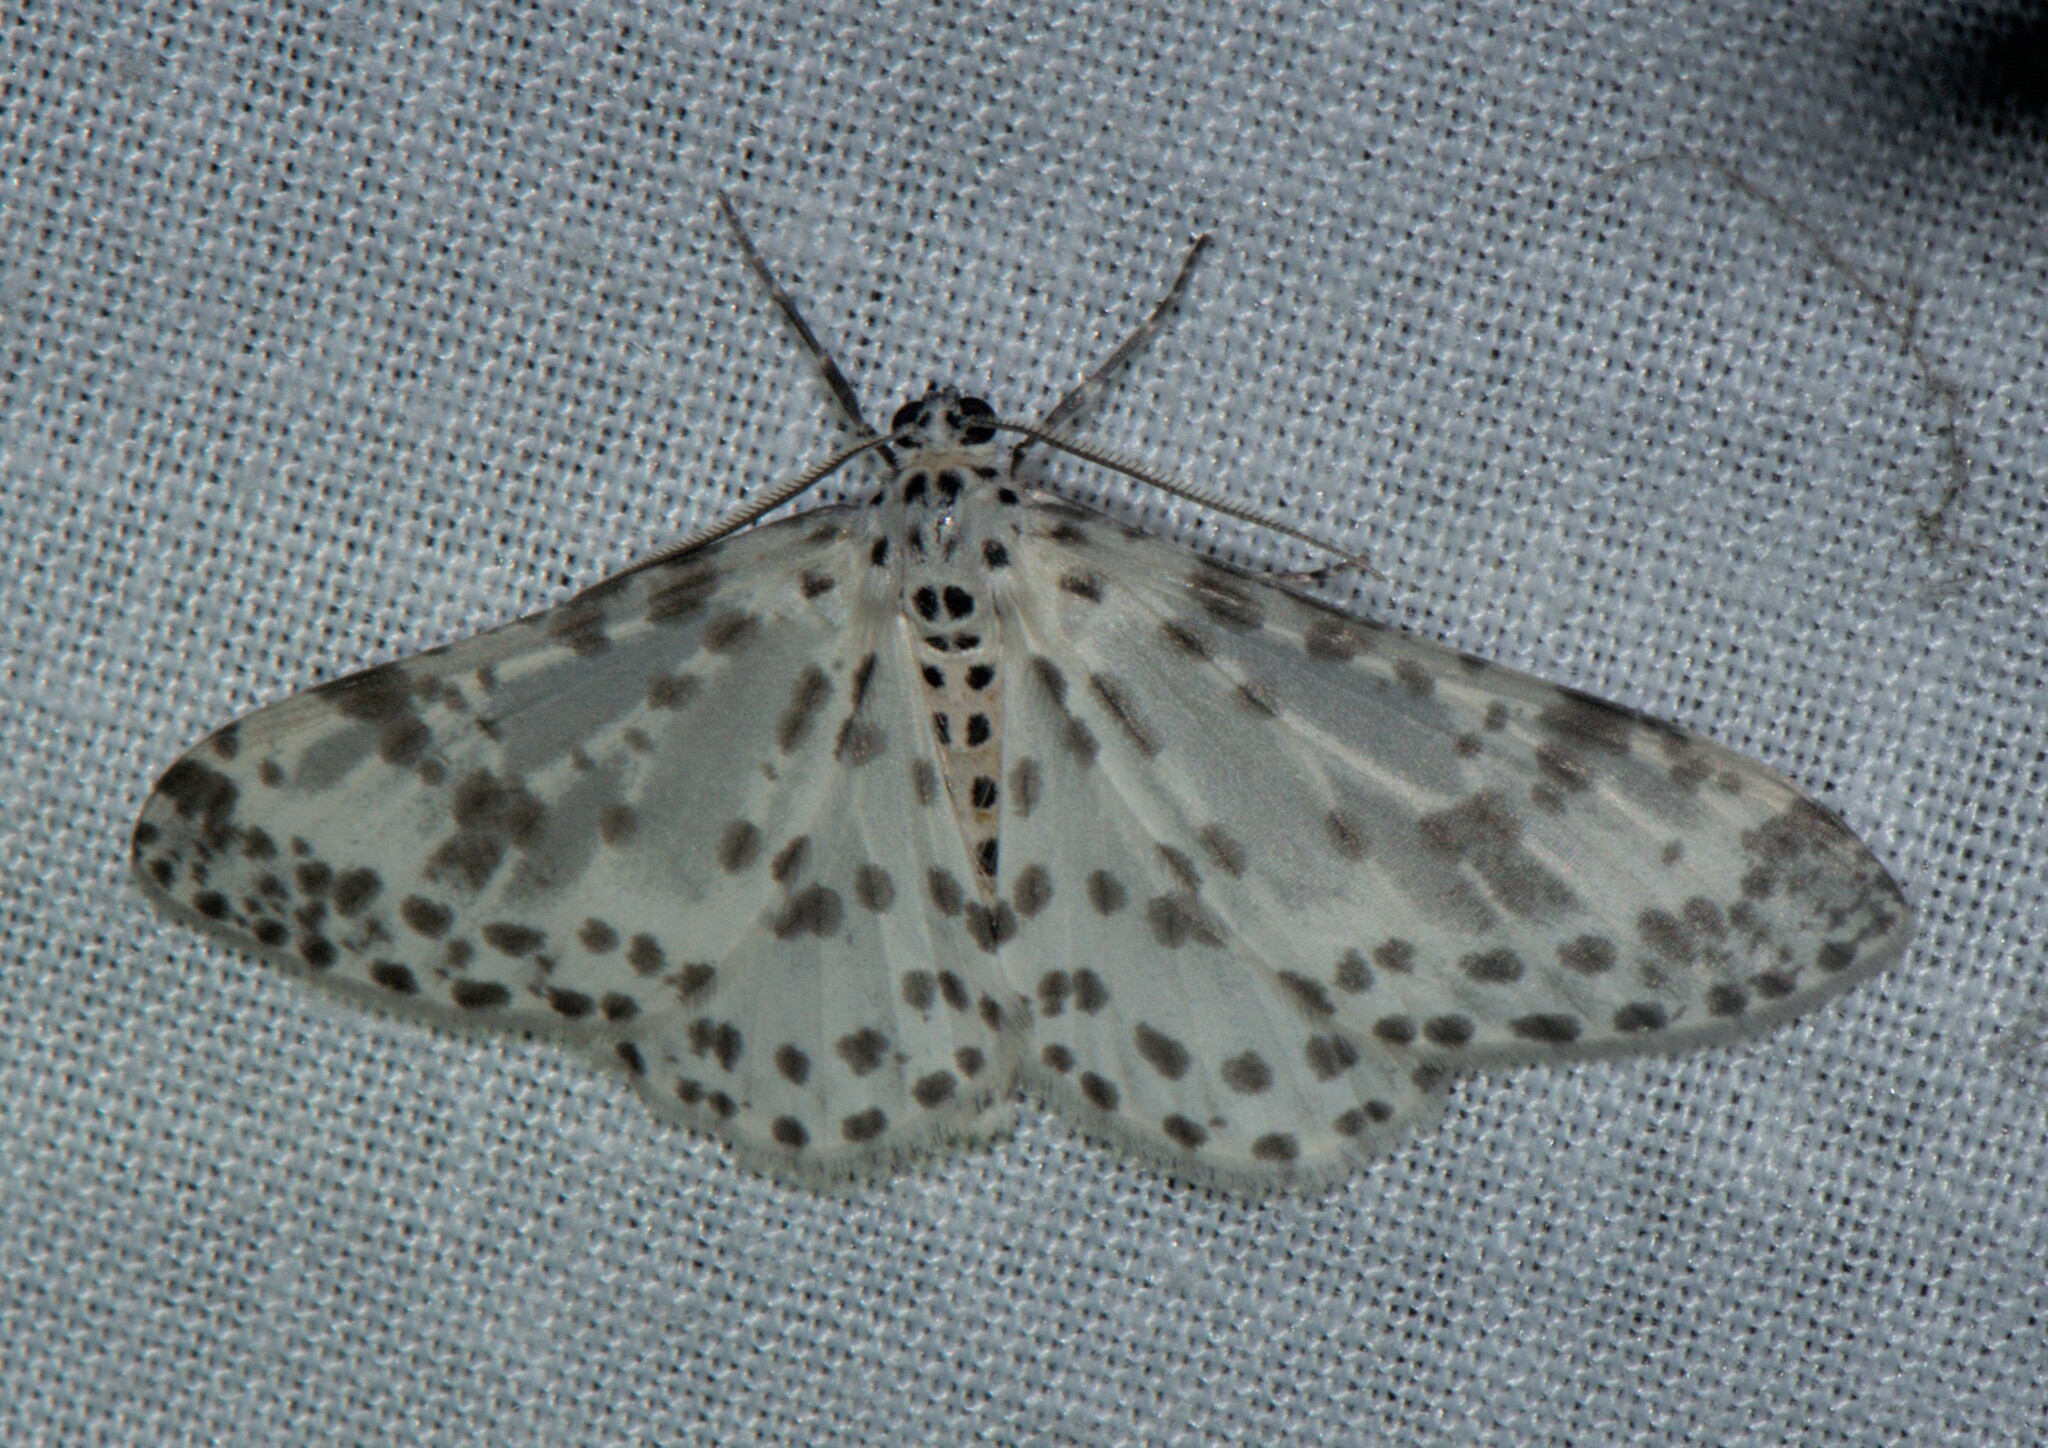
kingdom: Animalia
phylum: Arthropoda
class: Insecta
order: Lepidoptera
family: Geometridae
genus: Xenoplia
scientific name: Xenoplia maculata
